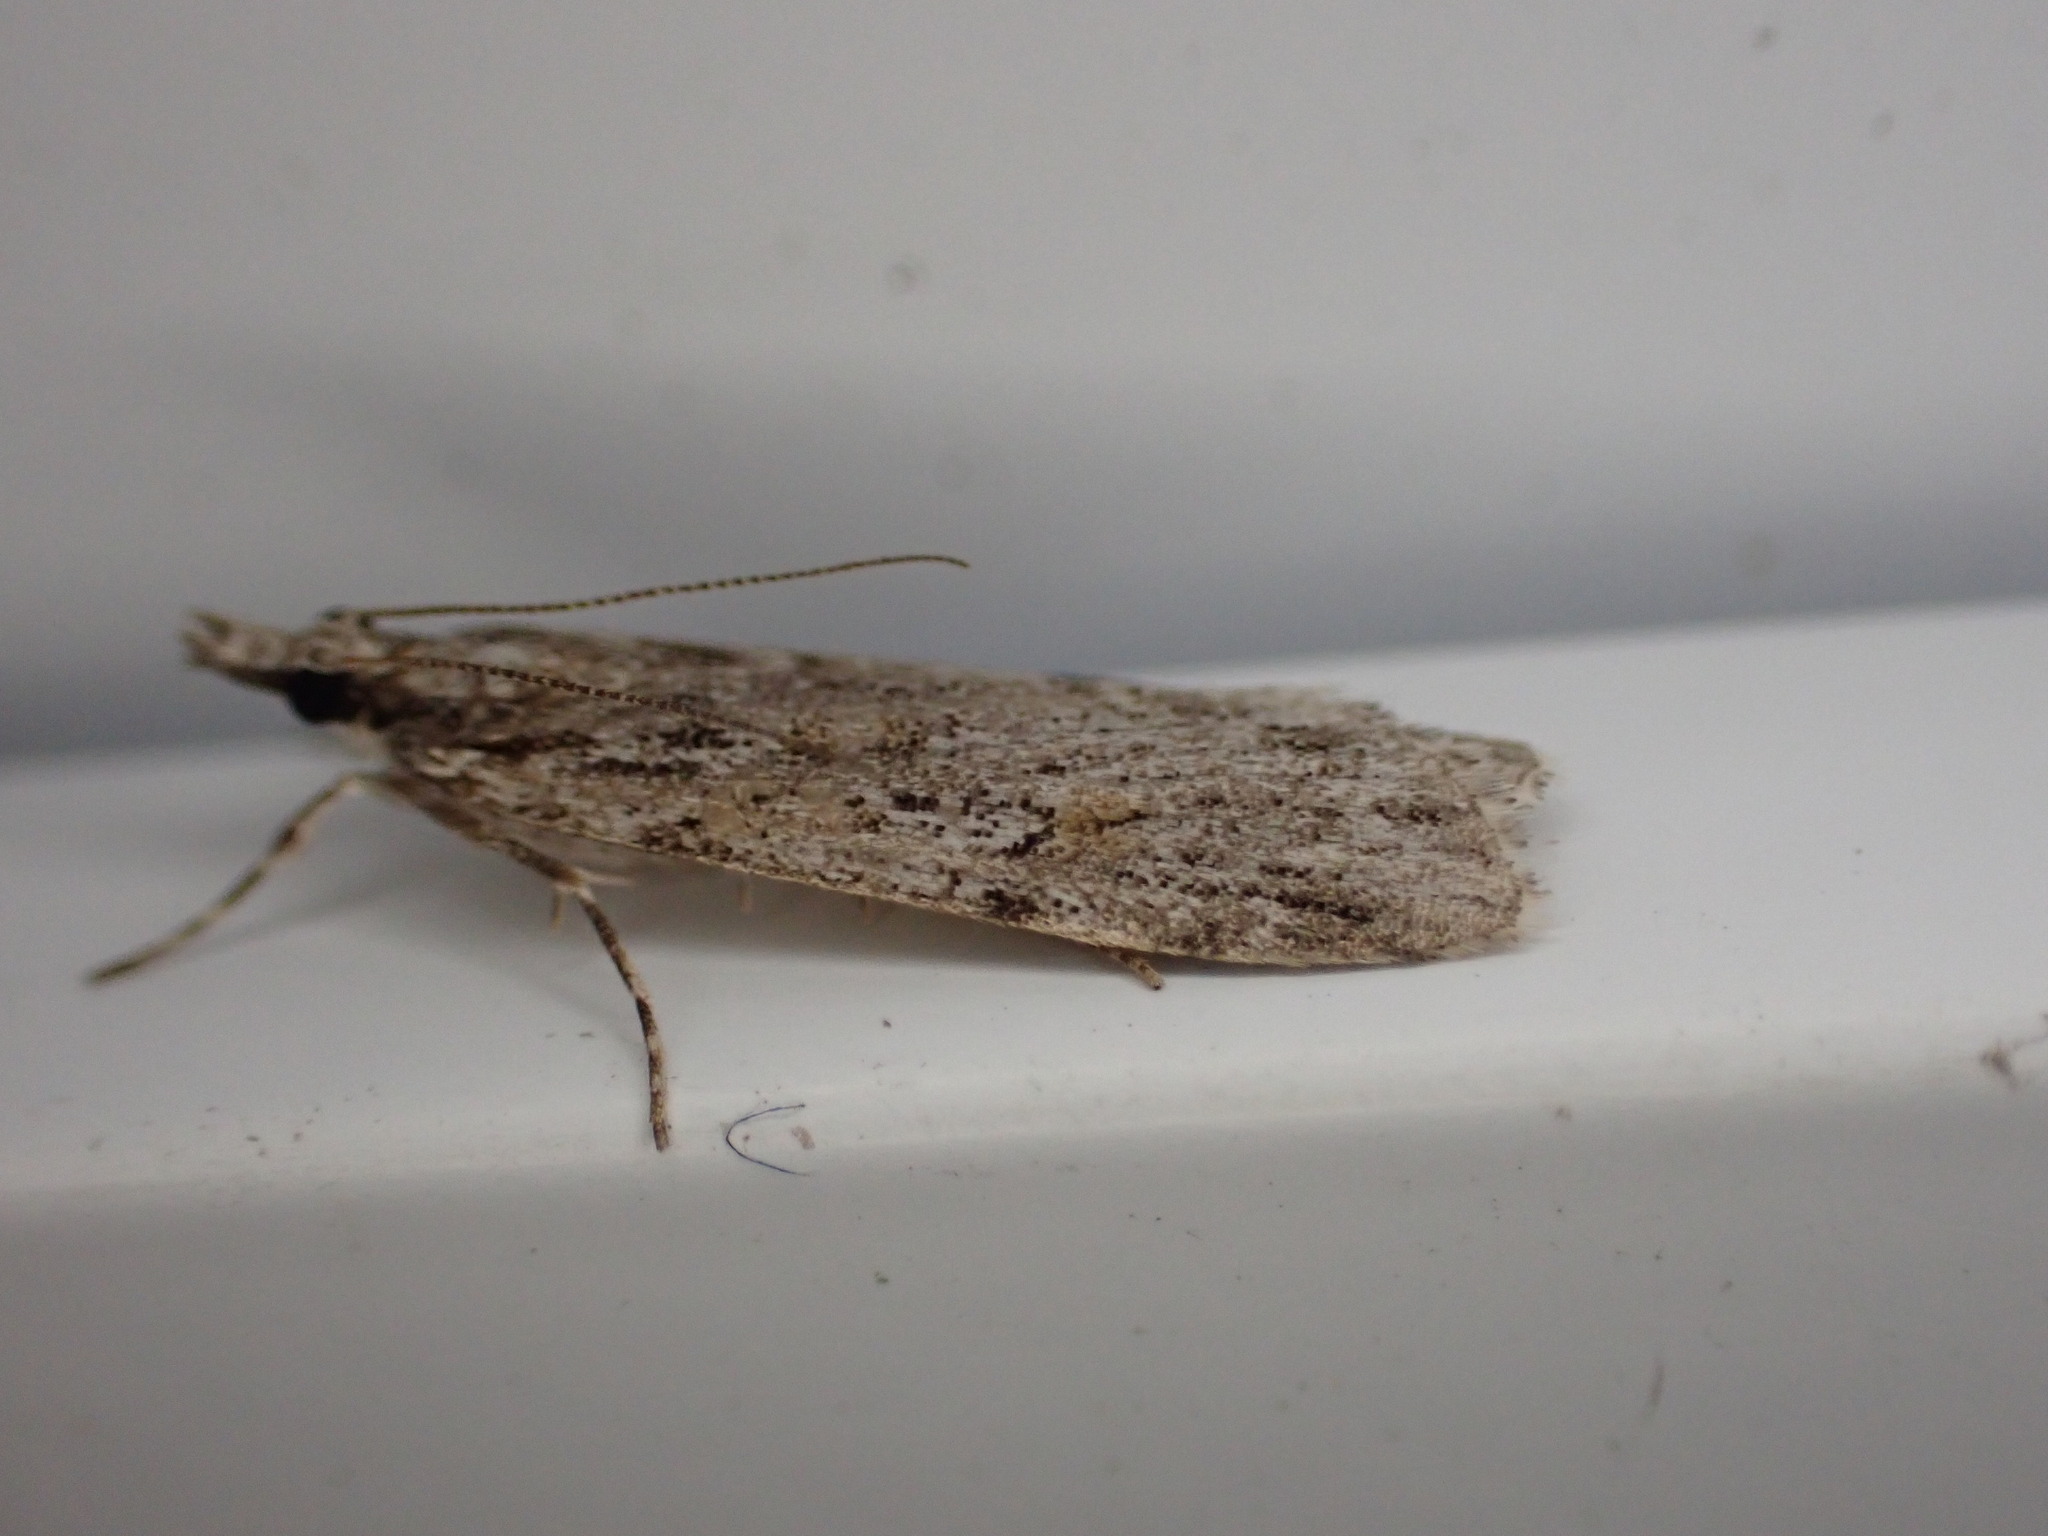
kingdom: Animalia
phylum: Arthropoda
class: Insecta
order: Lepidoptera
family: Crambidae
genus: Scoparia
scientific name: Scoparia chalicodes
